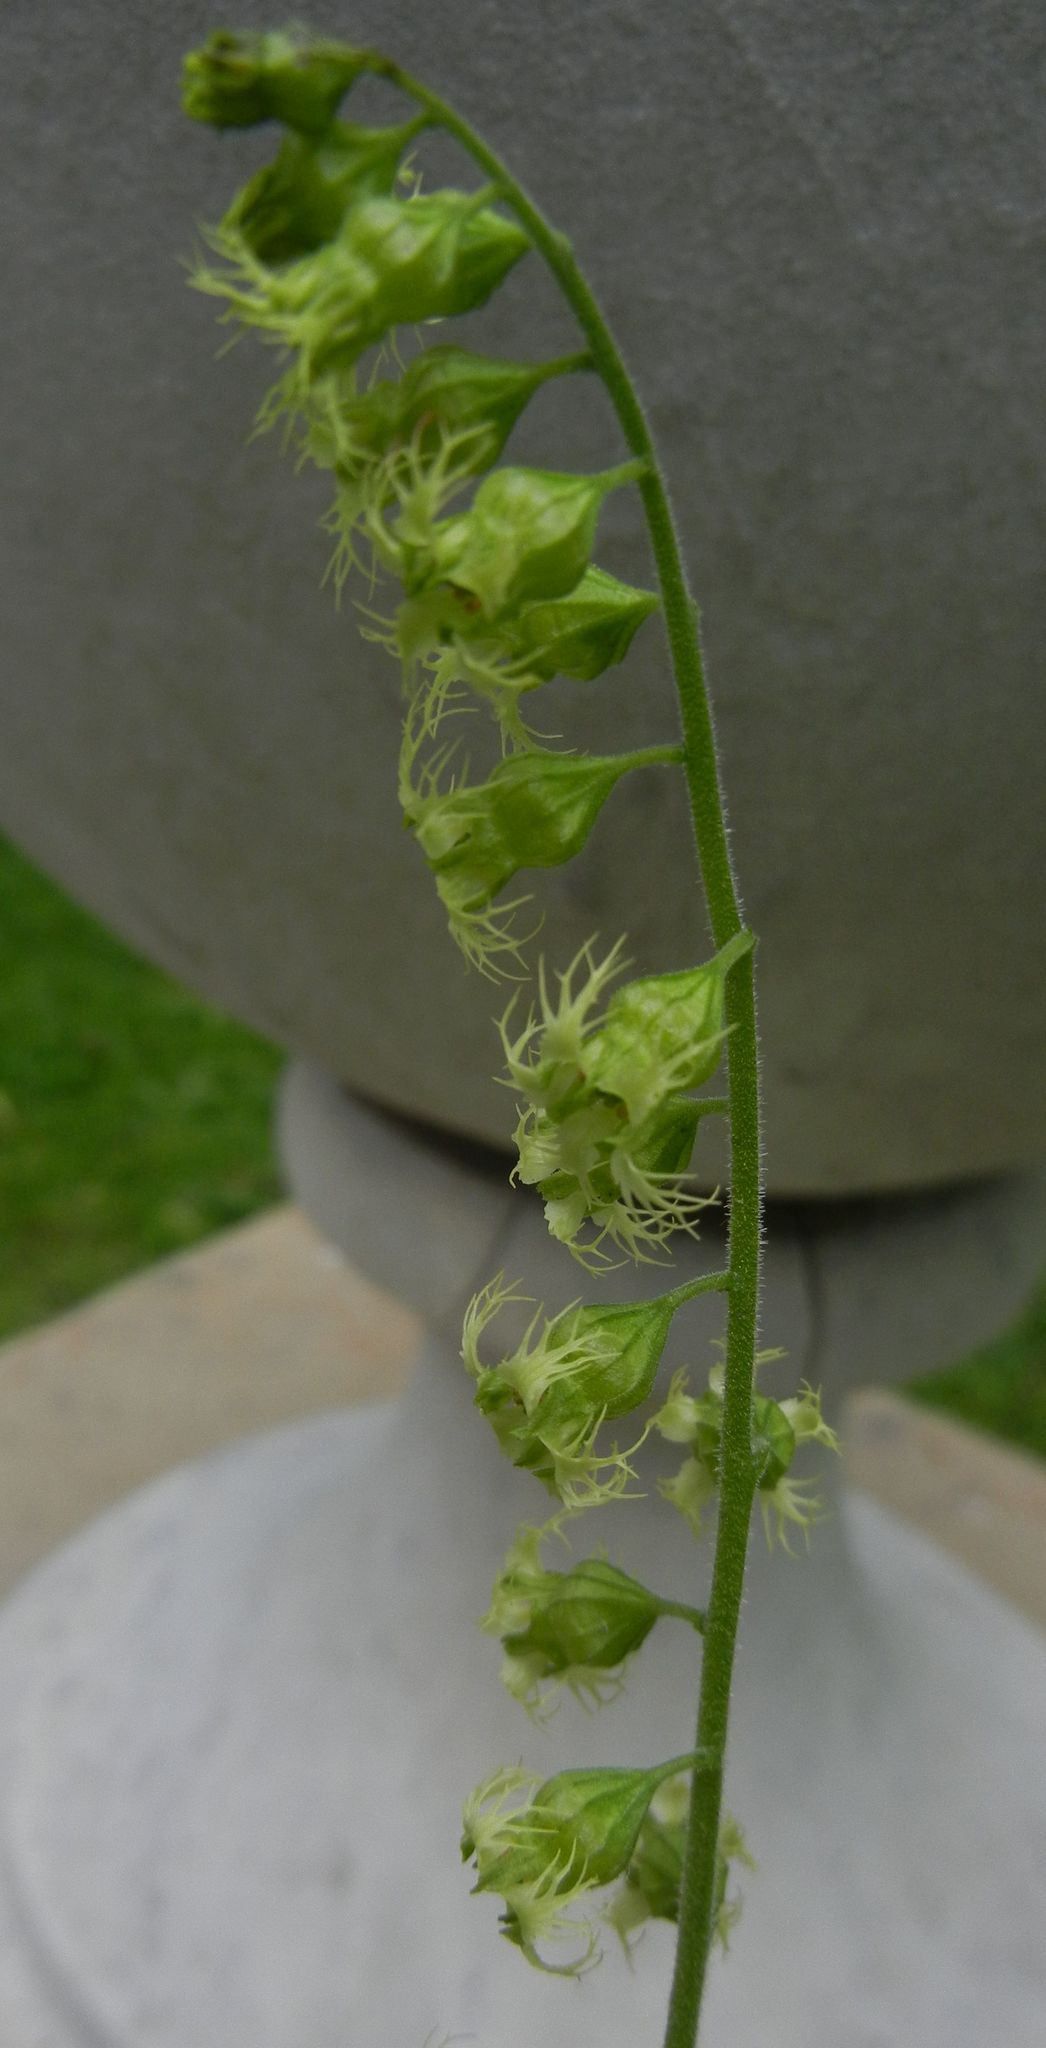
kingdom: Plantae
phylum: Tracheophyta
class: Magnoliopsida
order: Saxifragales
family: Saxifragaceae
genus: Tellima
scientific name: Tellima grandiflora
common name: Fringecups
